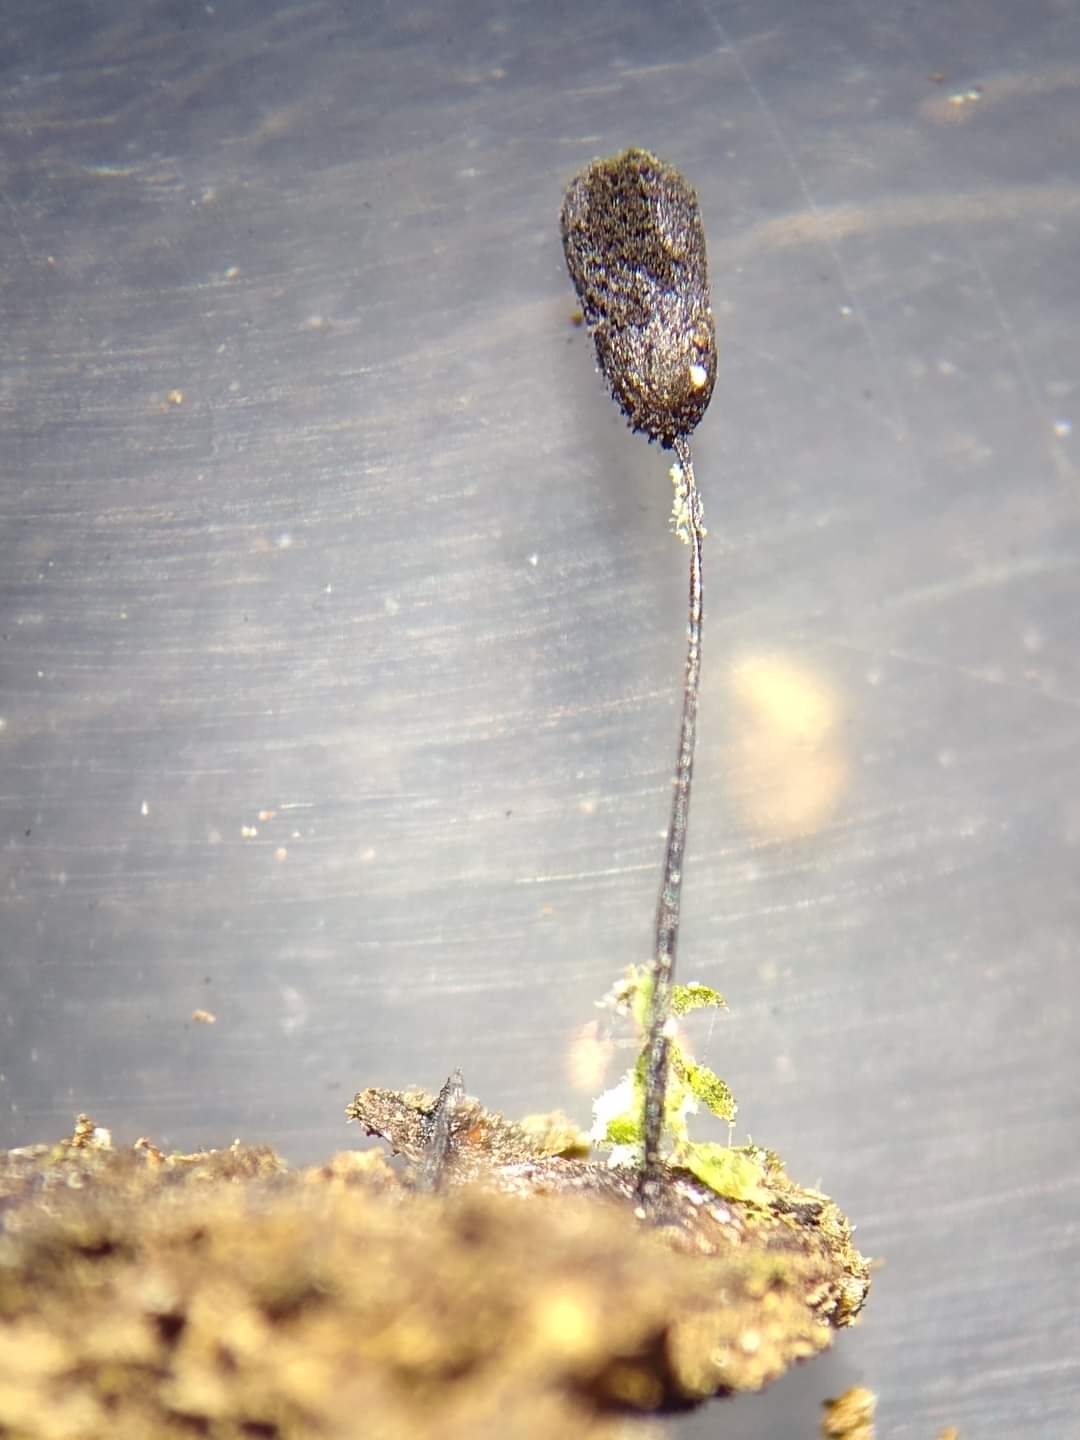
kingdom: Protozoa
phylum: Mycetozoa
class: Myxomycetes
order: Stemonitidales
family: Stemonitidaceae
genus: Lamproderma
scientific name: Lamproderma gracile
